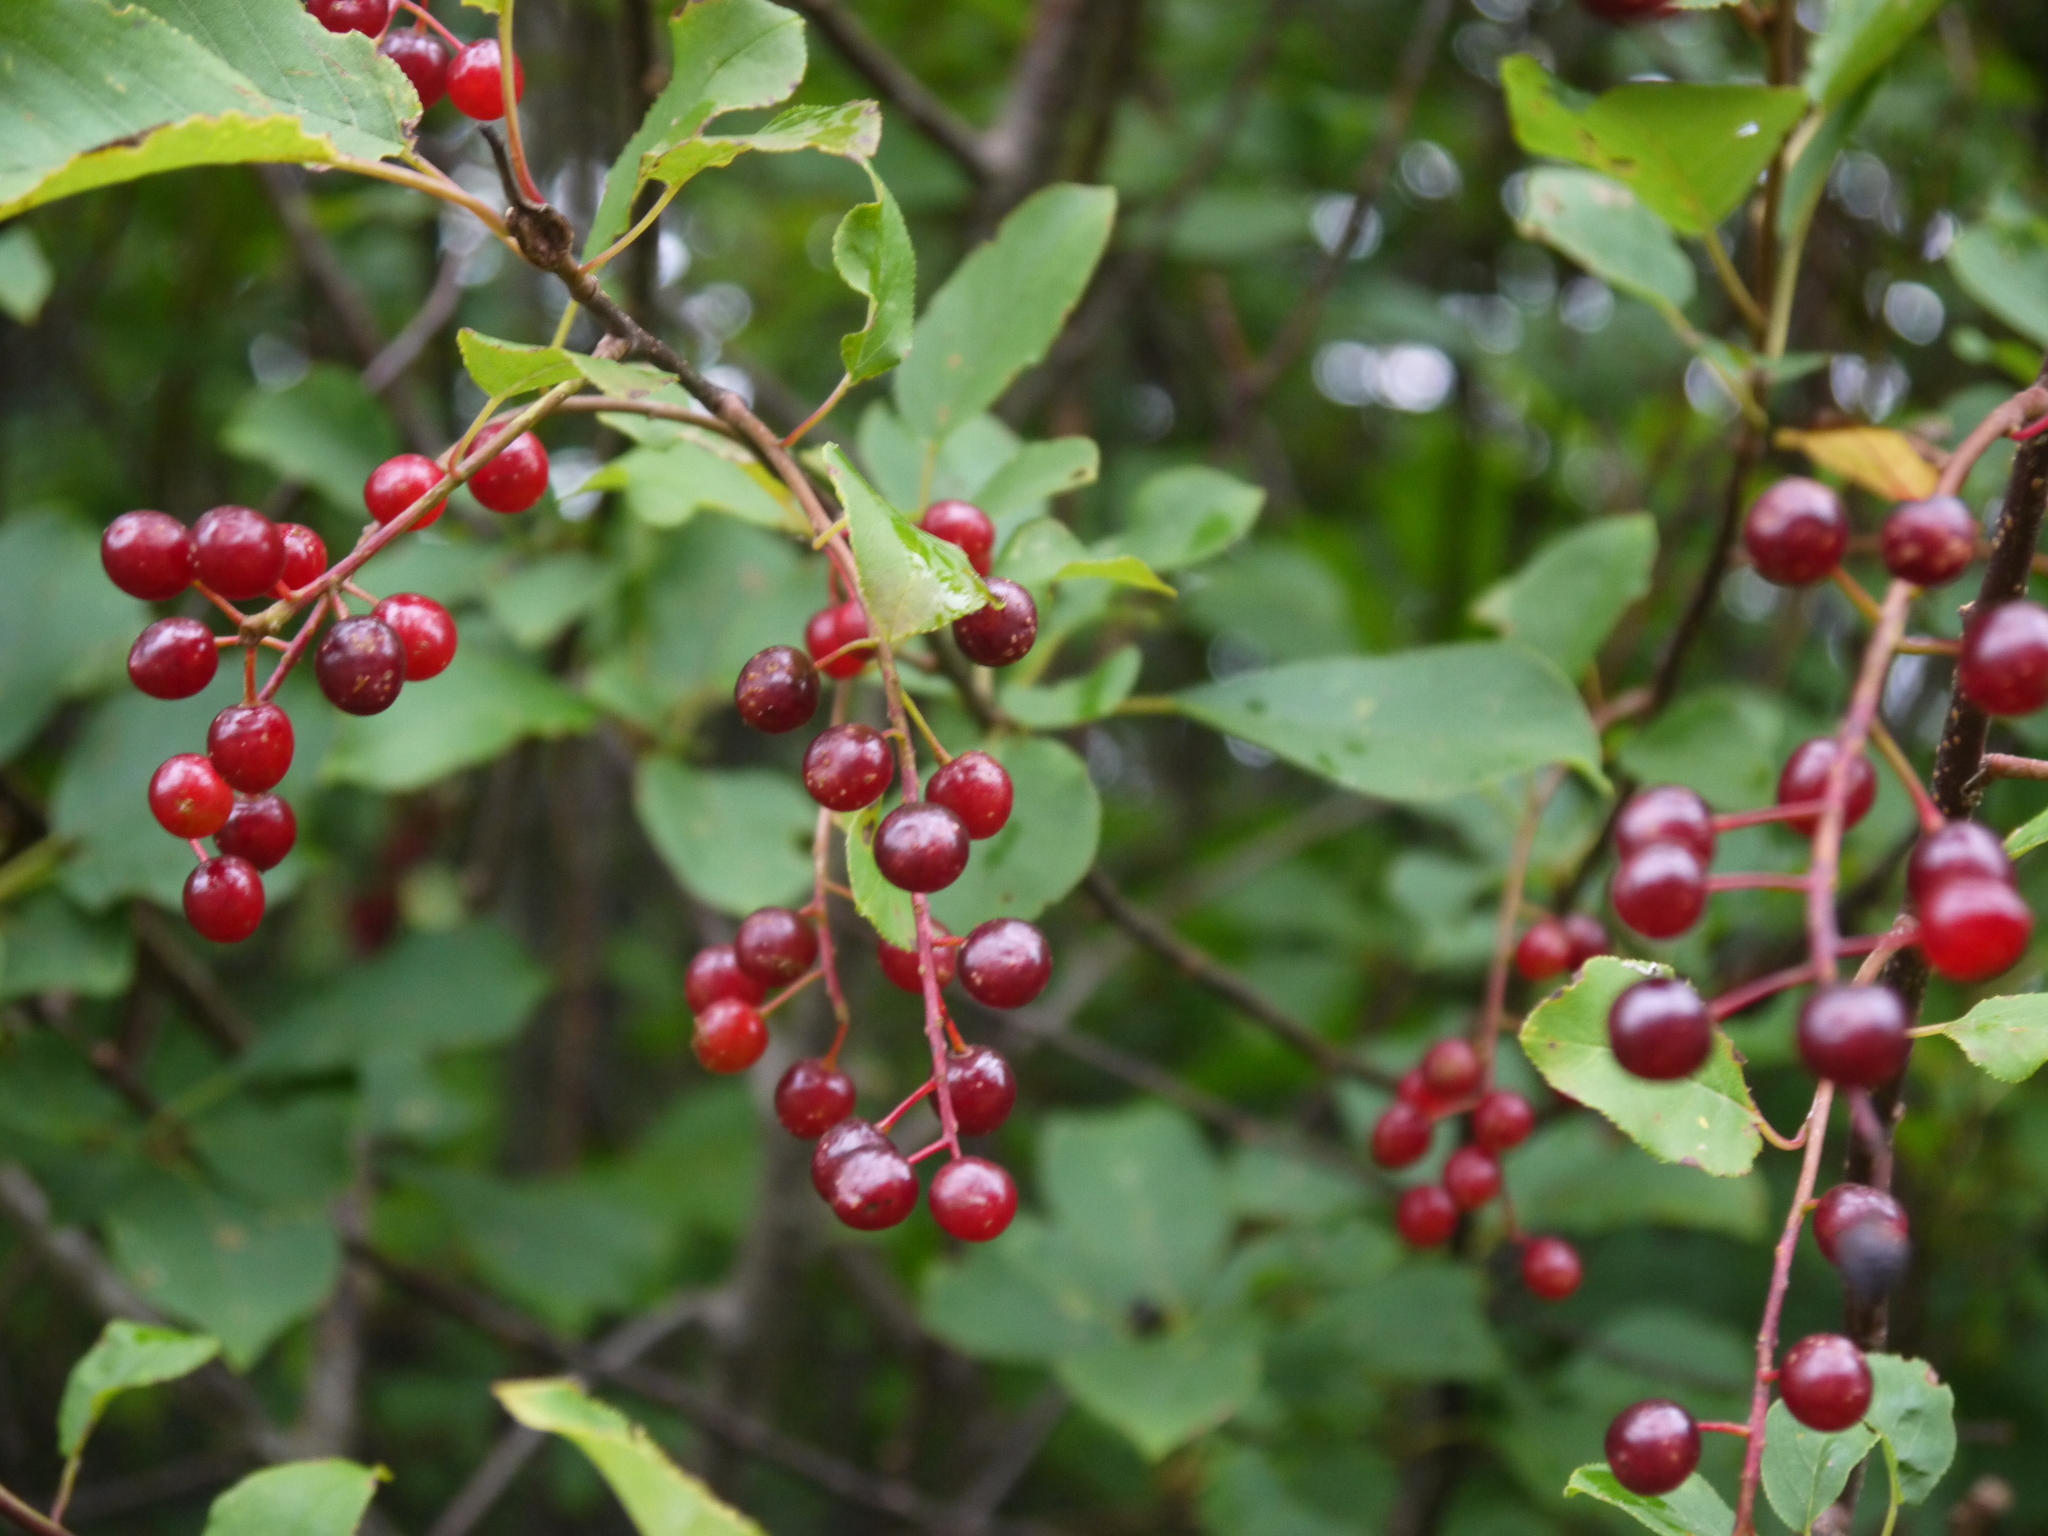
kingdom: Plantae
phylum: Tracheophyta
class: Magnoliopsida
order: Rosales
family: Rosaceae
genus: Prunus
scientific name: Prunus virginiana
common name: Chokecherry
